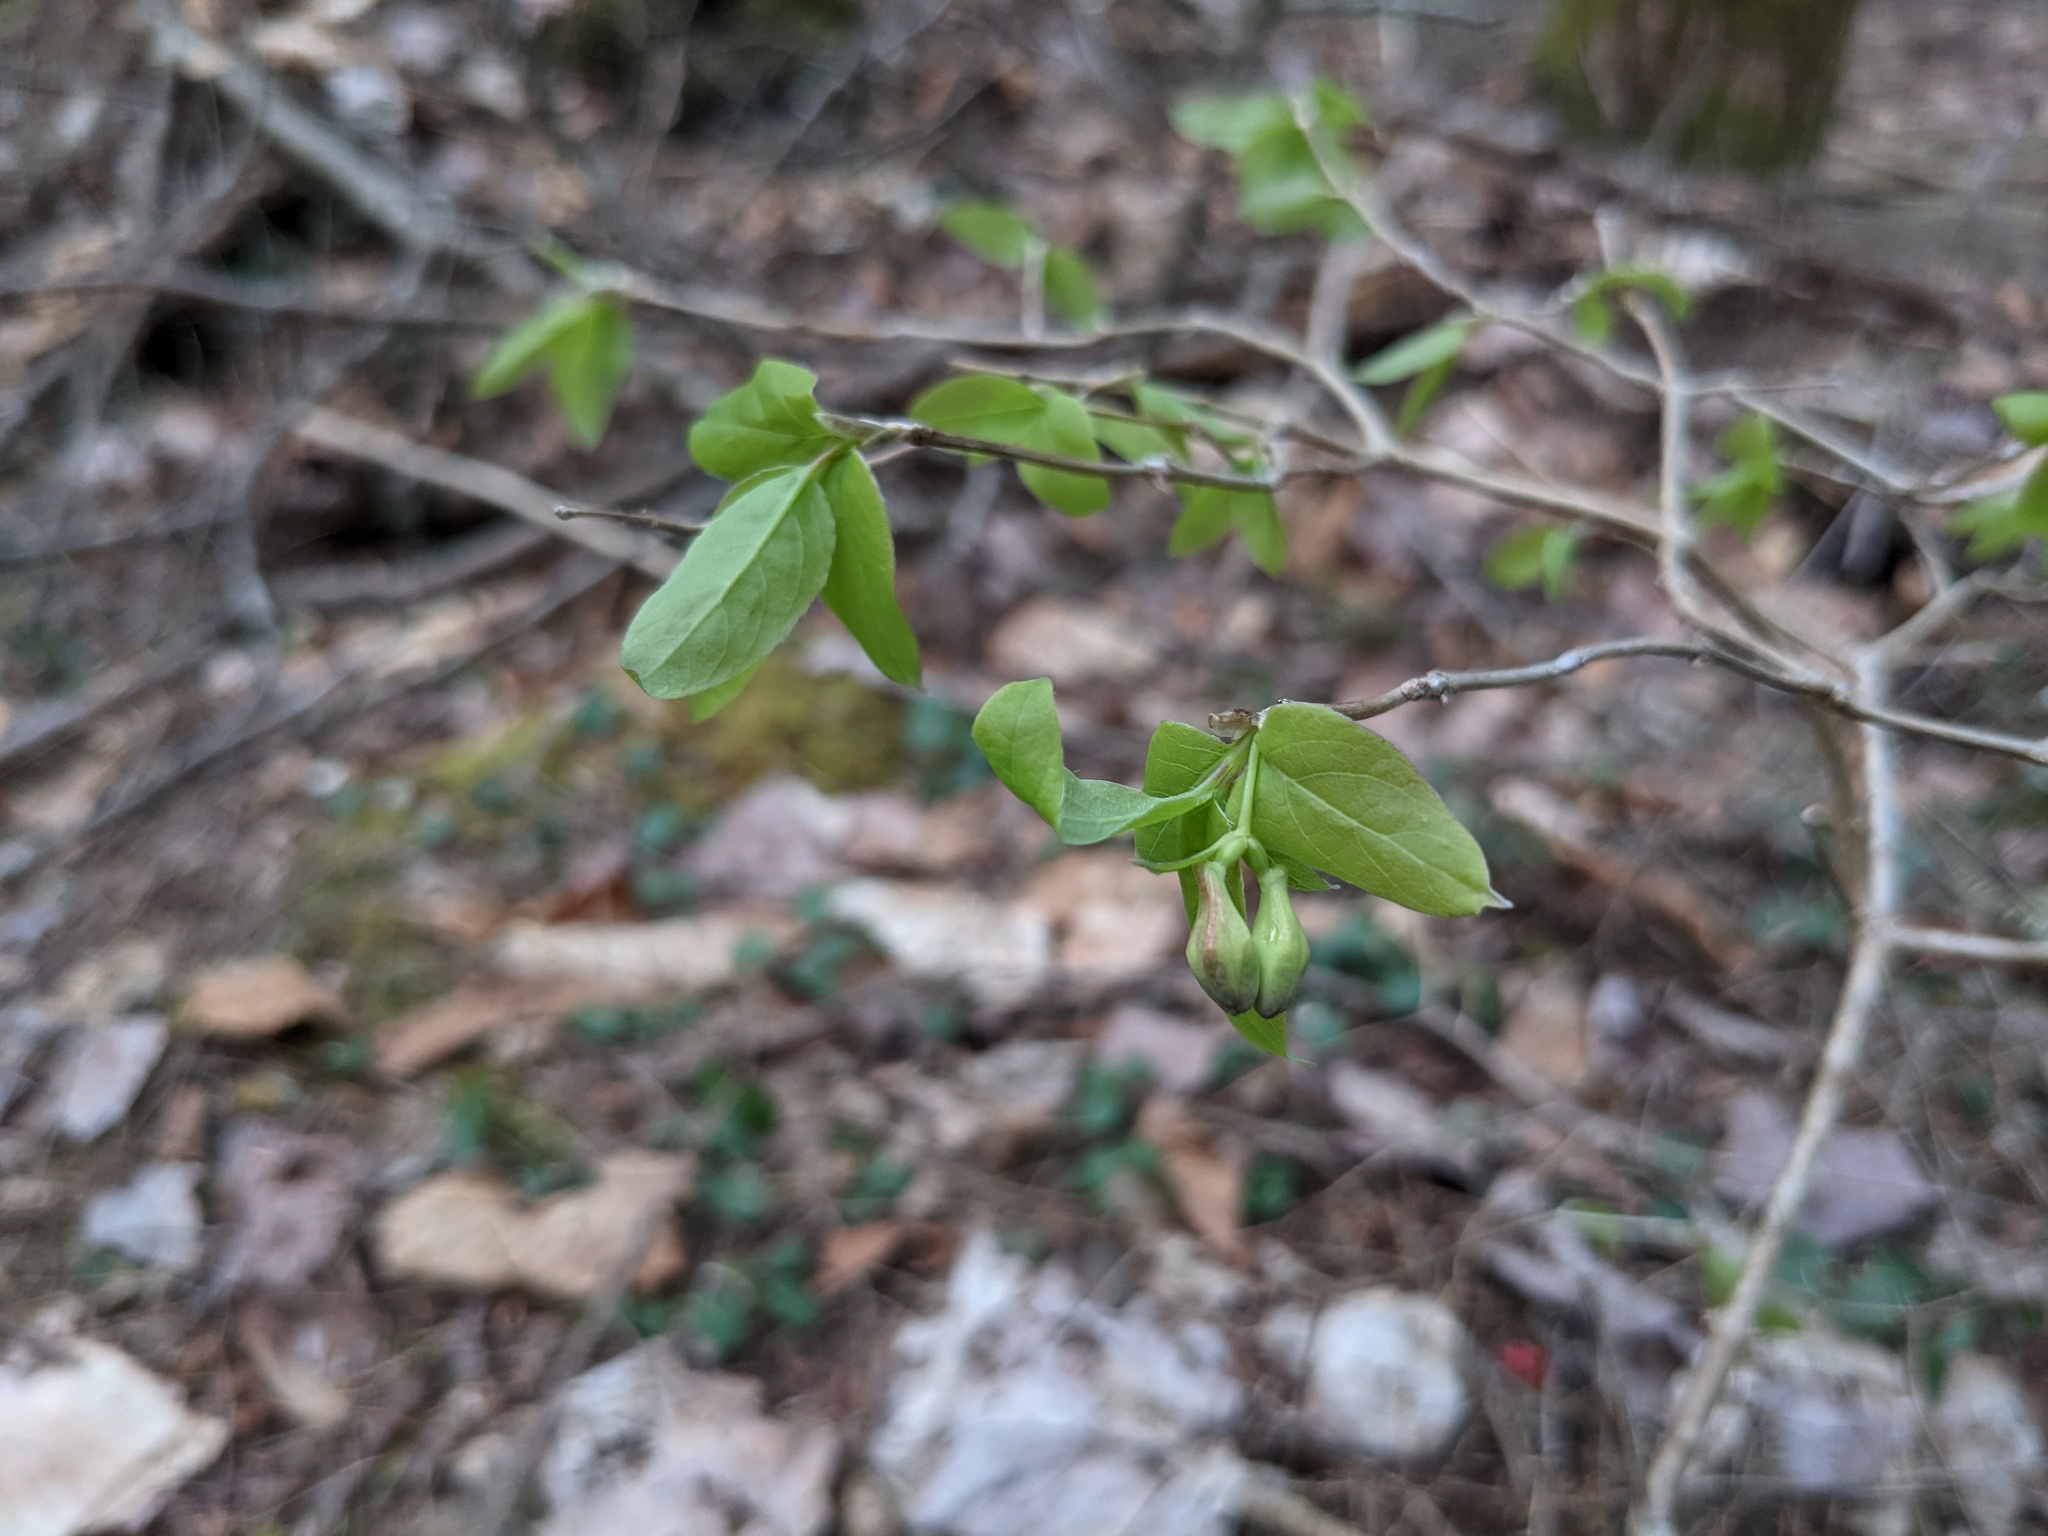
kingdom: Plantae
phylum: Tracheophyta
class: Magnoliopsida
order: Dipsacales
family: Caprifoliaceae
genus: Lonicera
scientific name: Lonicera canadensis
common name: American fly-honeysuckle
